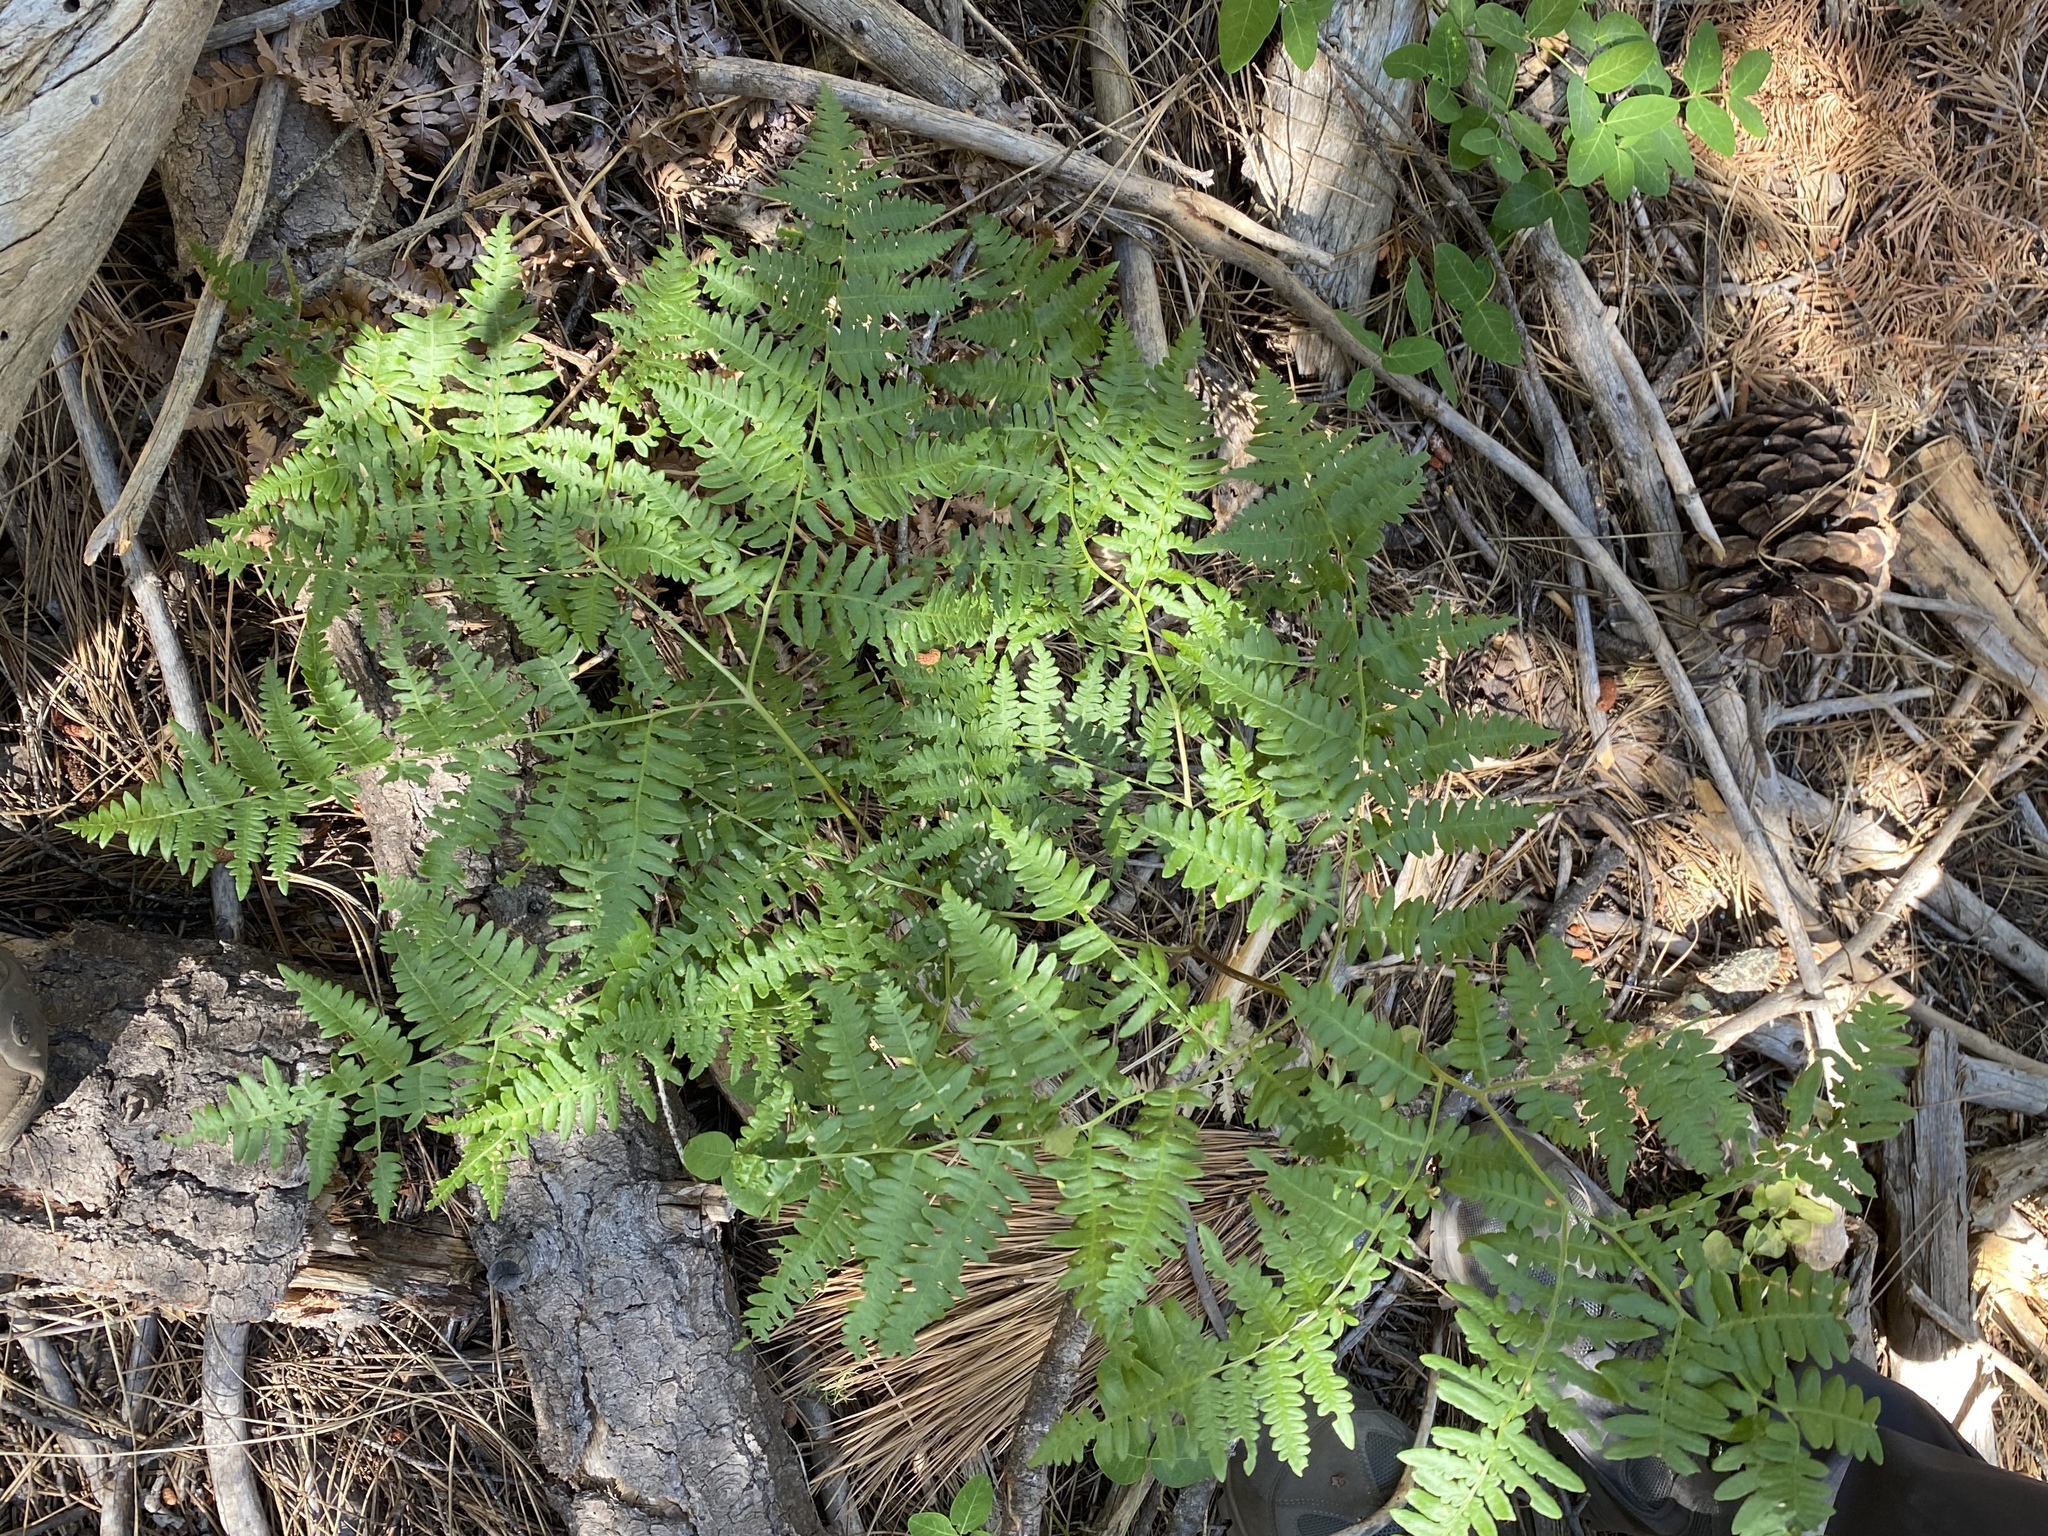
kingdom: Plantae
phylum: Tracheophyta
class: Polypodiopsida
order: Polypodiales
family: Dennstaedtiaceae
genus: Pteridium
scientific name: Pteridium aquilinum
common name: Bracken
